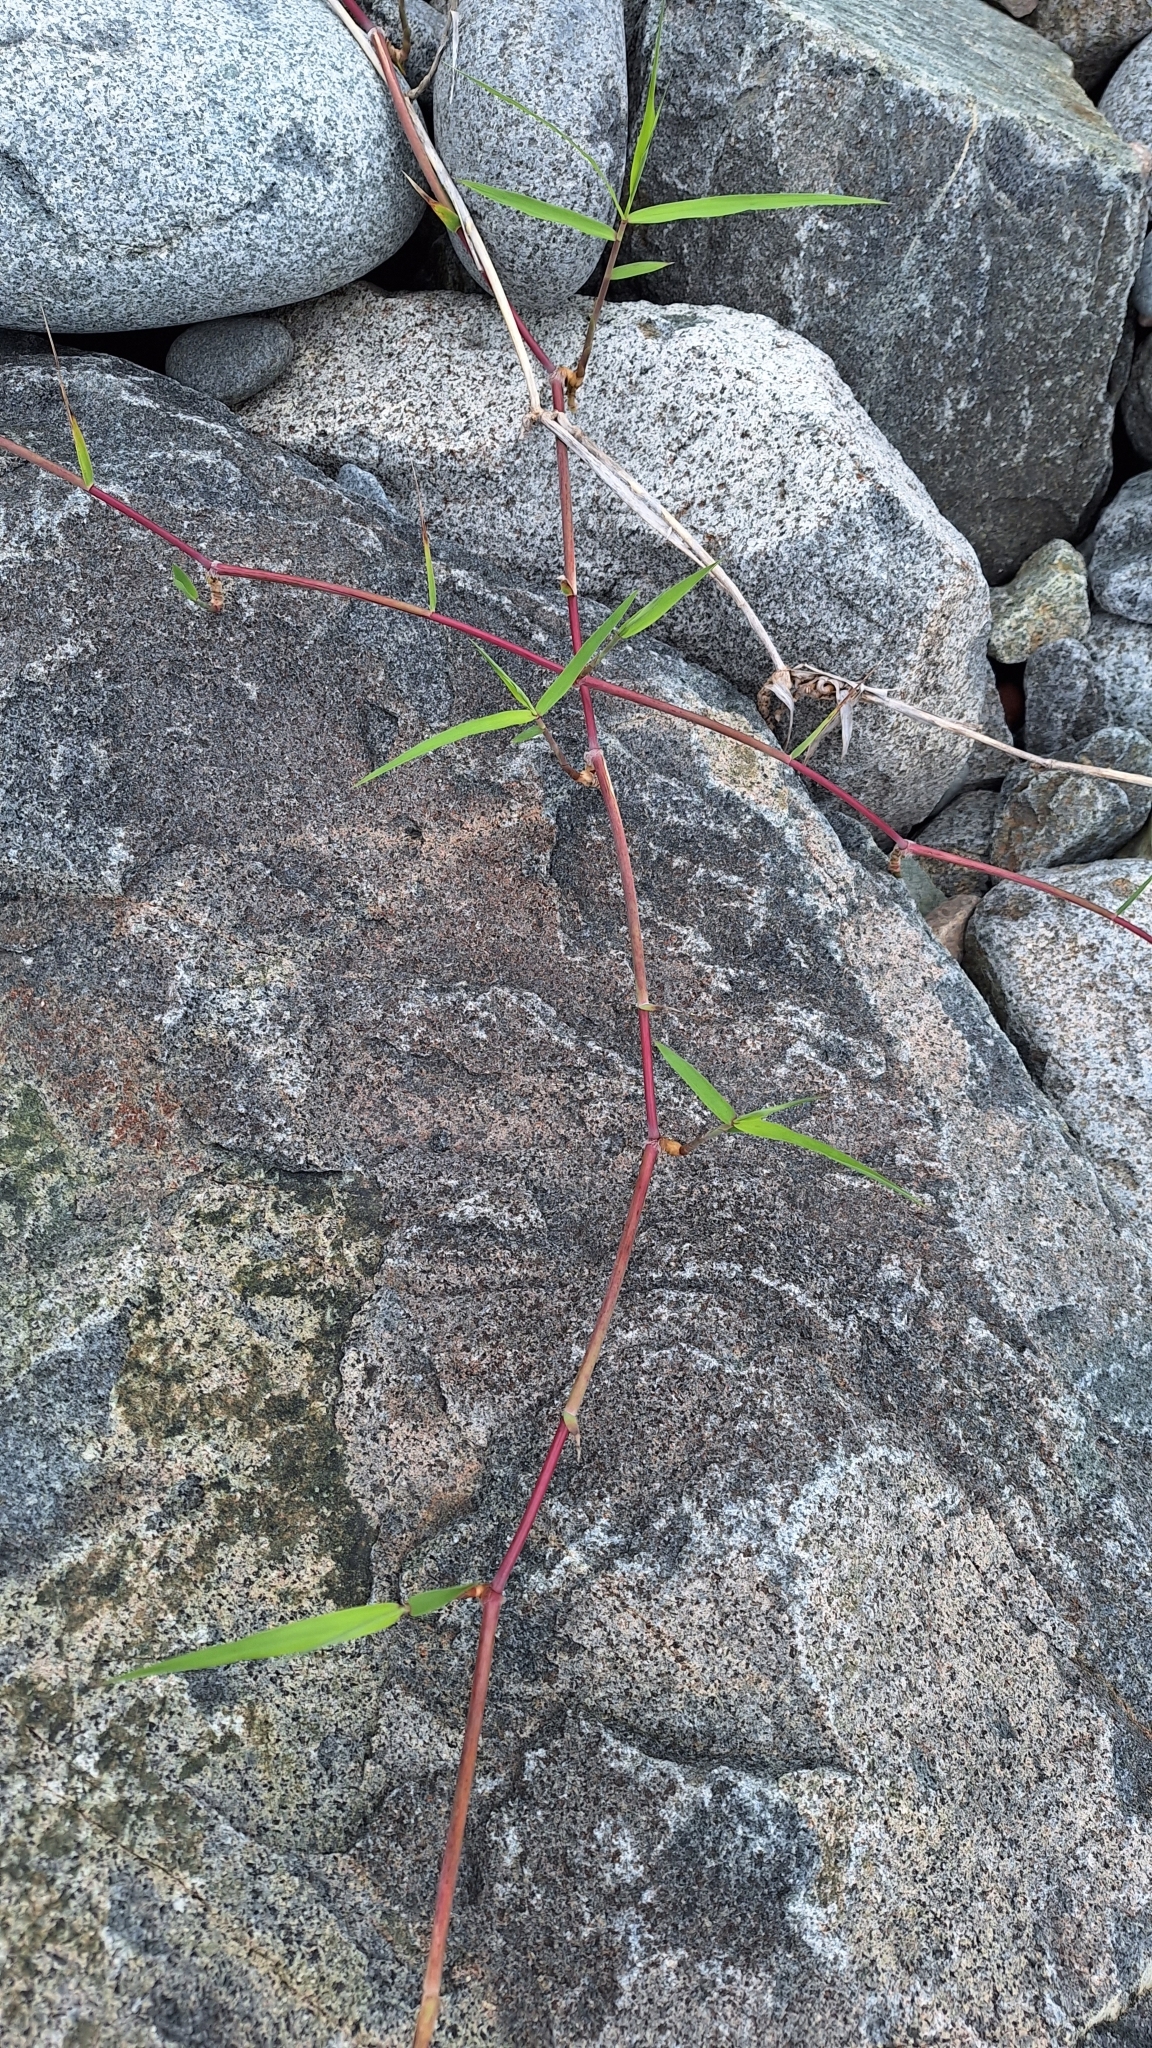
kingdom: Plantae
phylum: Tracheophyta
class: Liliopsida
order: Poales
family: Poaceae
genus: Phragmites
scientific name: Phragmites japonicus
